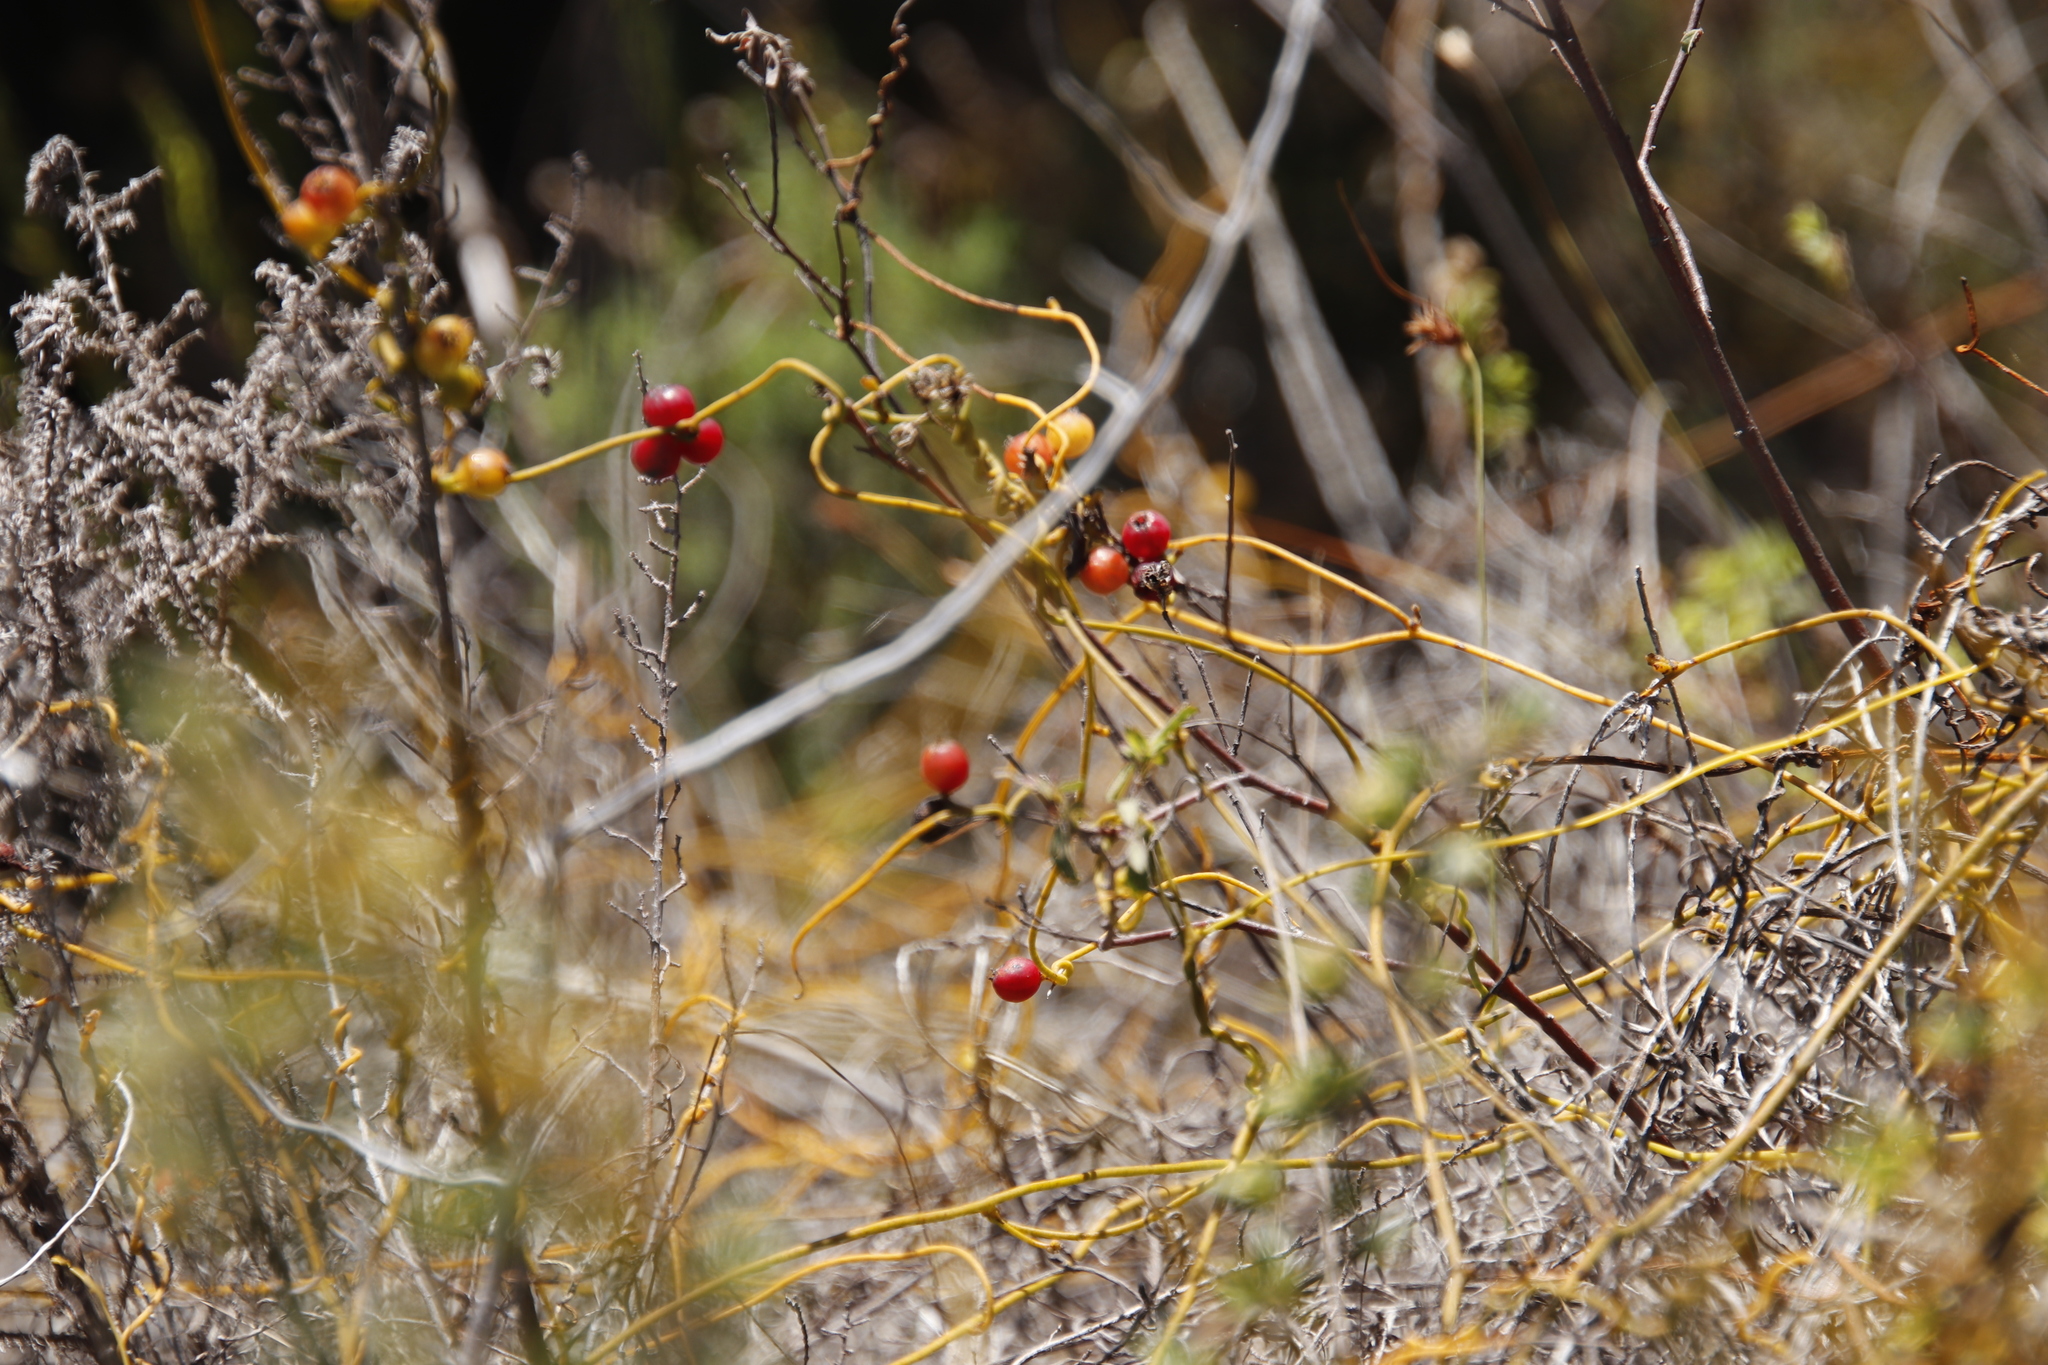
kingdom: Plantae
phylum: Tracheophyta
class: Magnoliopsida
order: Laurales
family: Lauraceae
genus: Cassytha
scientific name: Cassytha ciliolata
